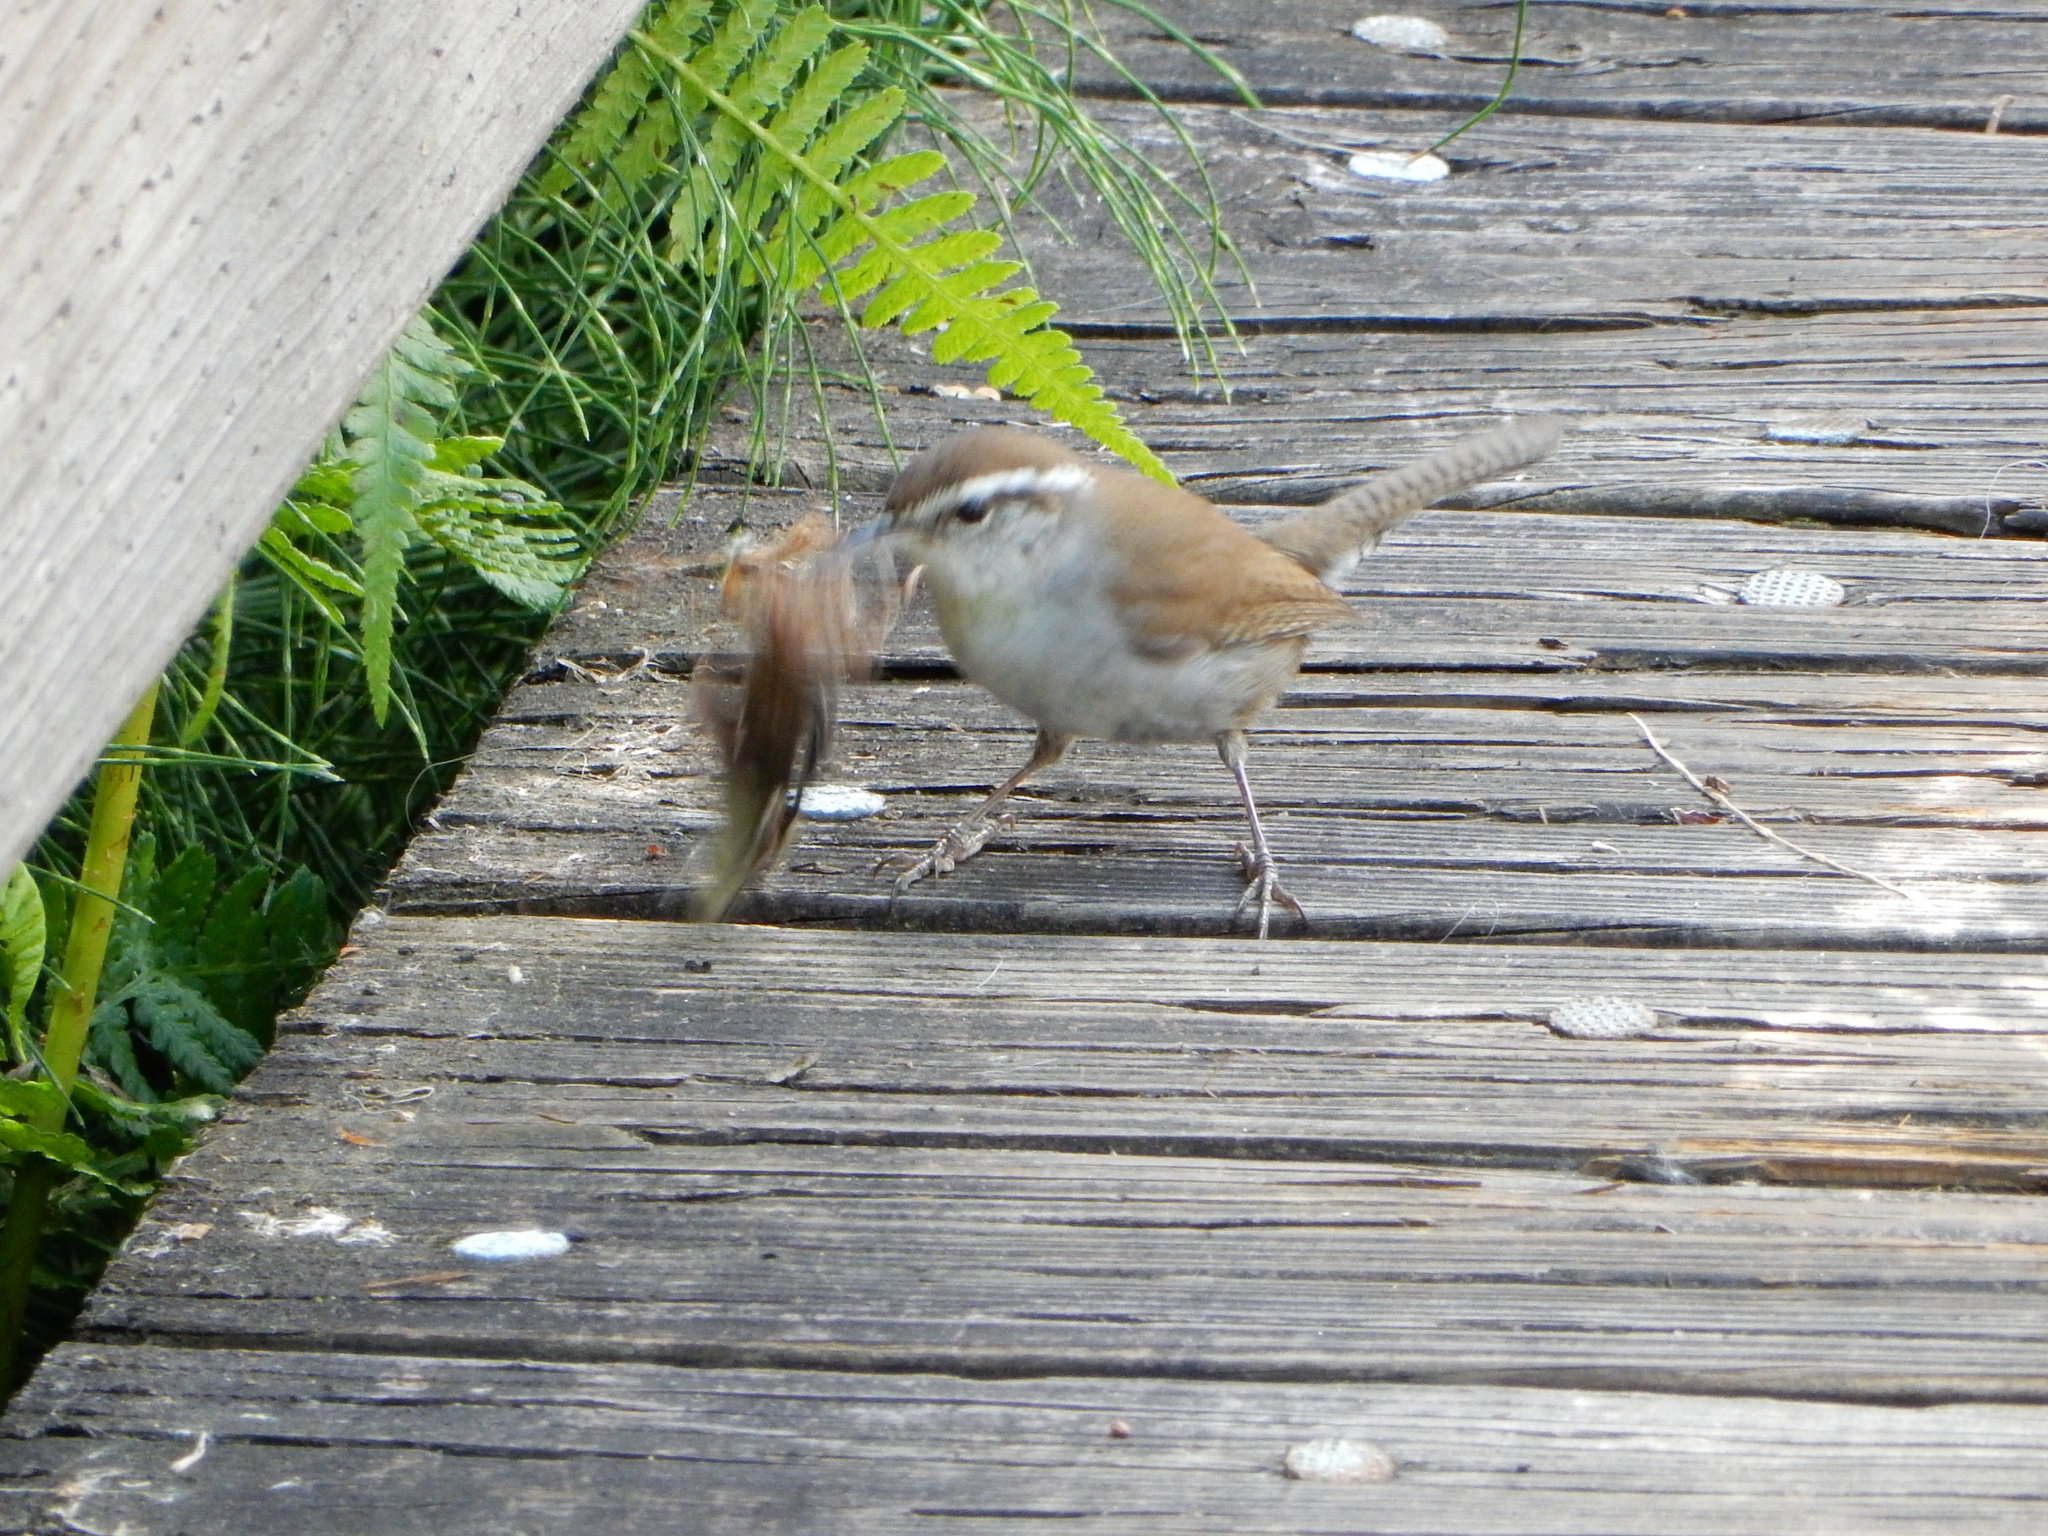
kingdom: Animalia
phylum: Chordata
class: Aves
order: Passeriformes
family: Troglodytidae
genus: Thryomanes
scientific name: Thryomanes bewickii
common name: Bewick's wren
